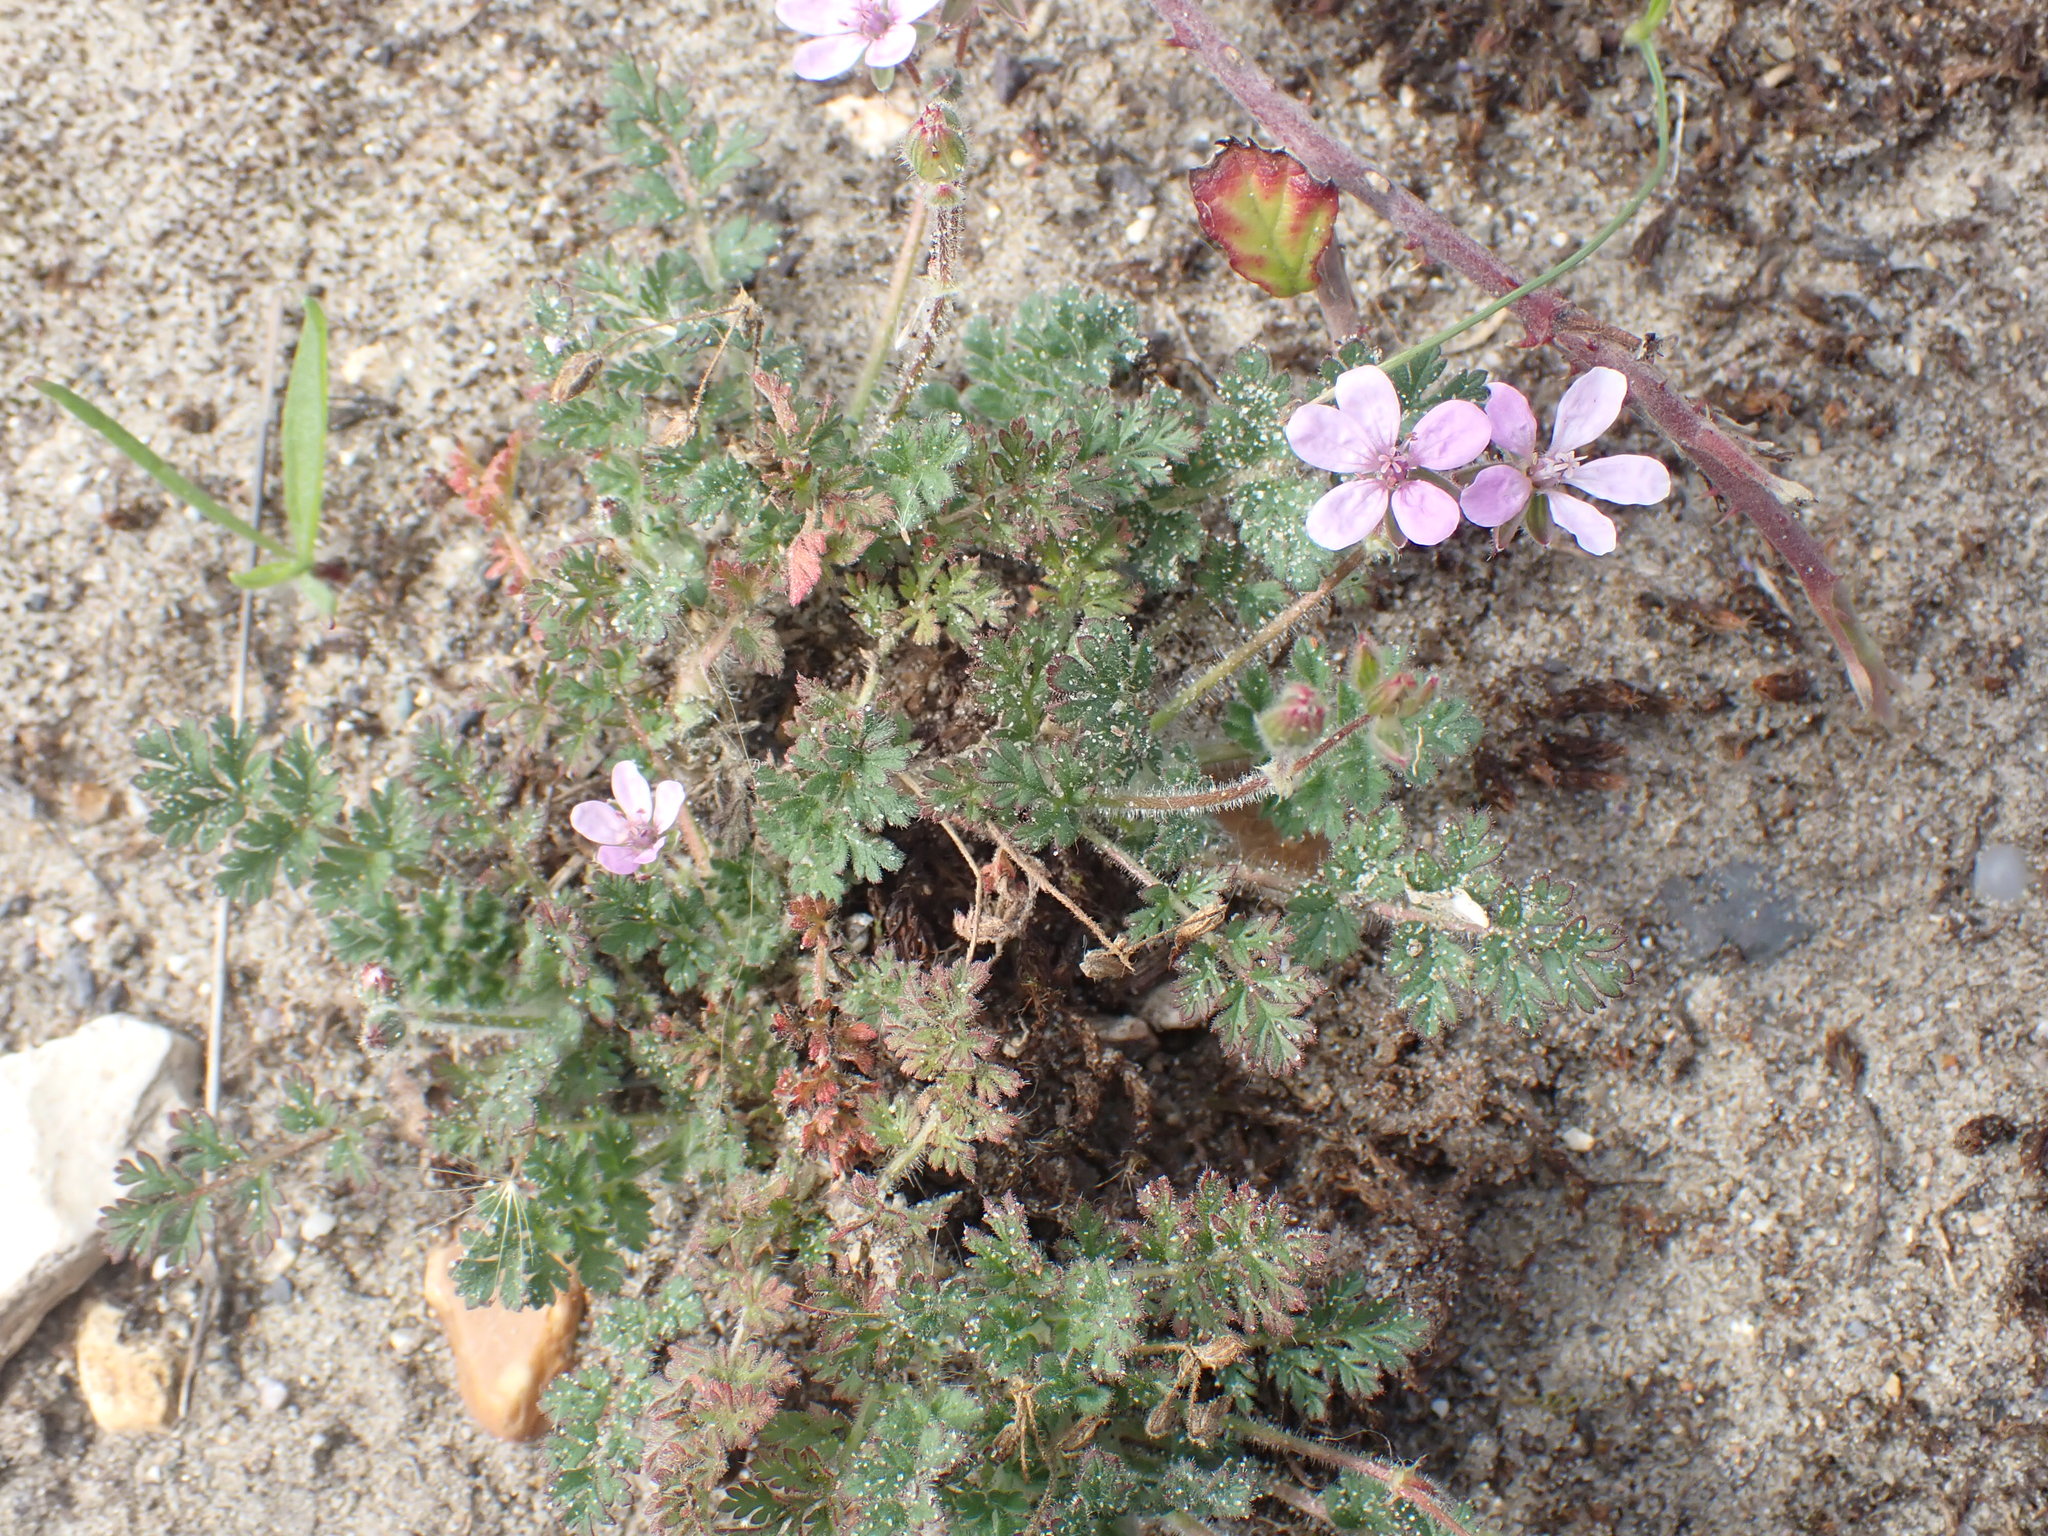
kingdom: Plantae
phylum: Tracheophyta
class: Magnoliopsida
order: Geraniales
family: Geraniaceae
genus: Erodium
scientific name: Erodium cicutarium
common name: Common stork's-bill
